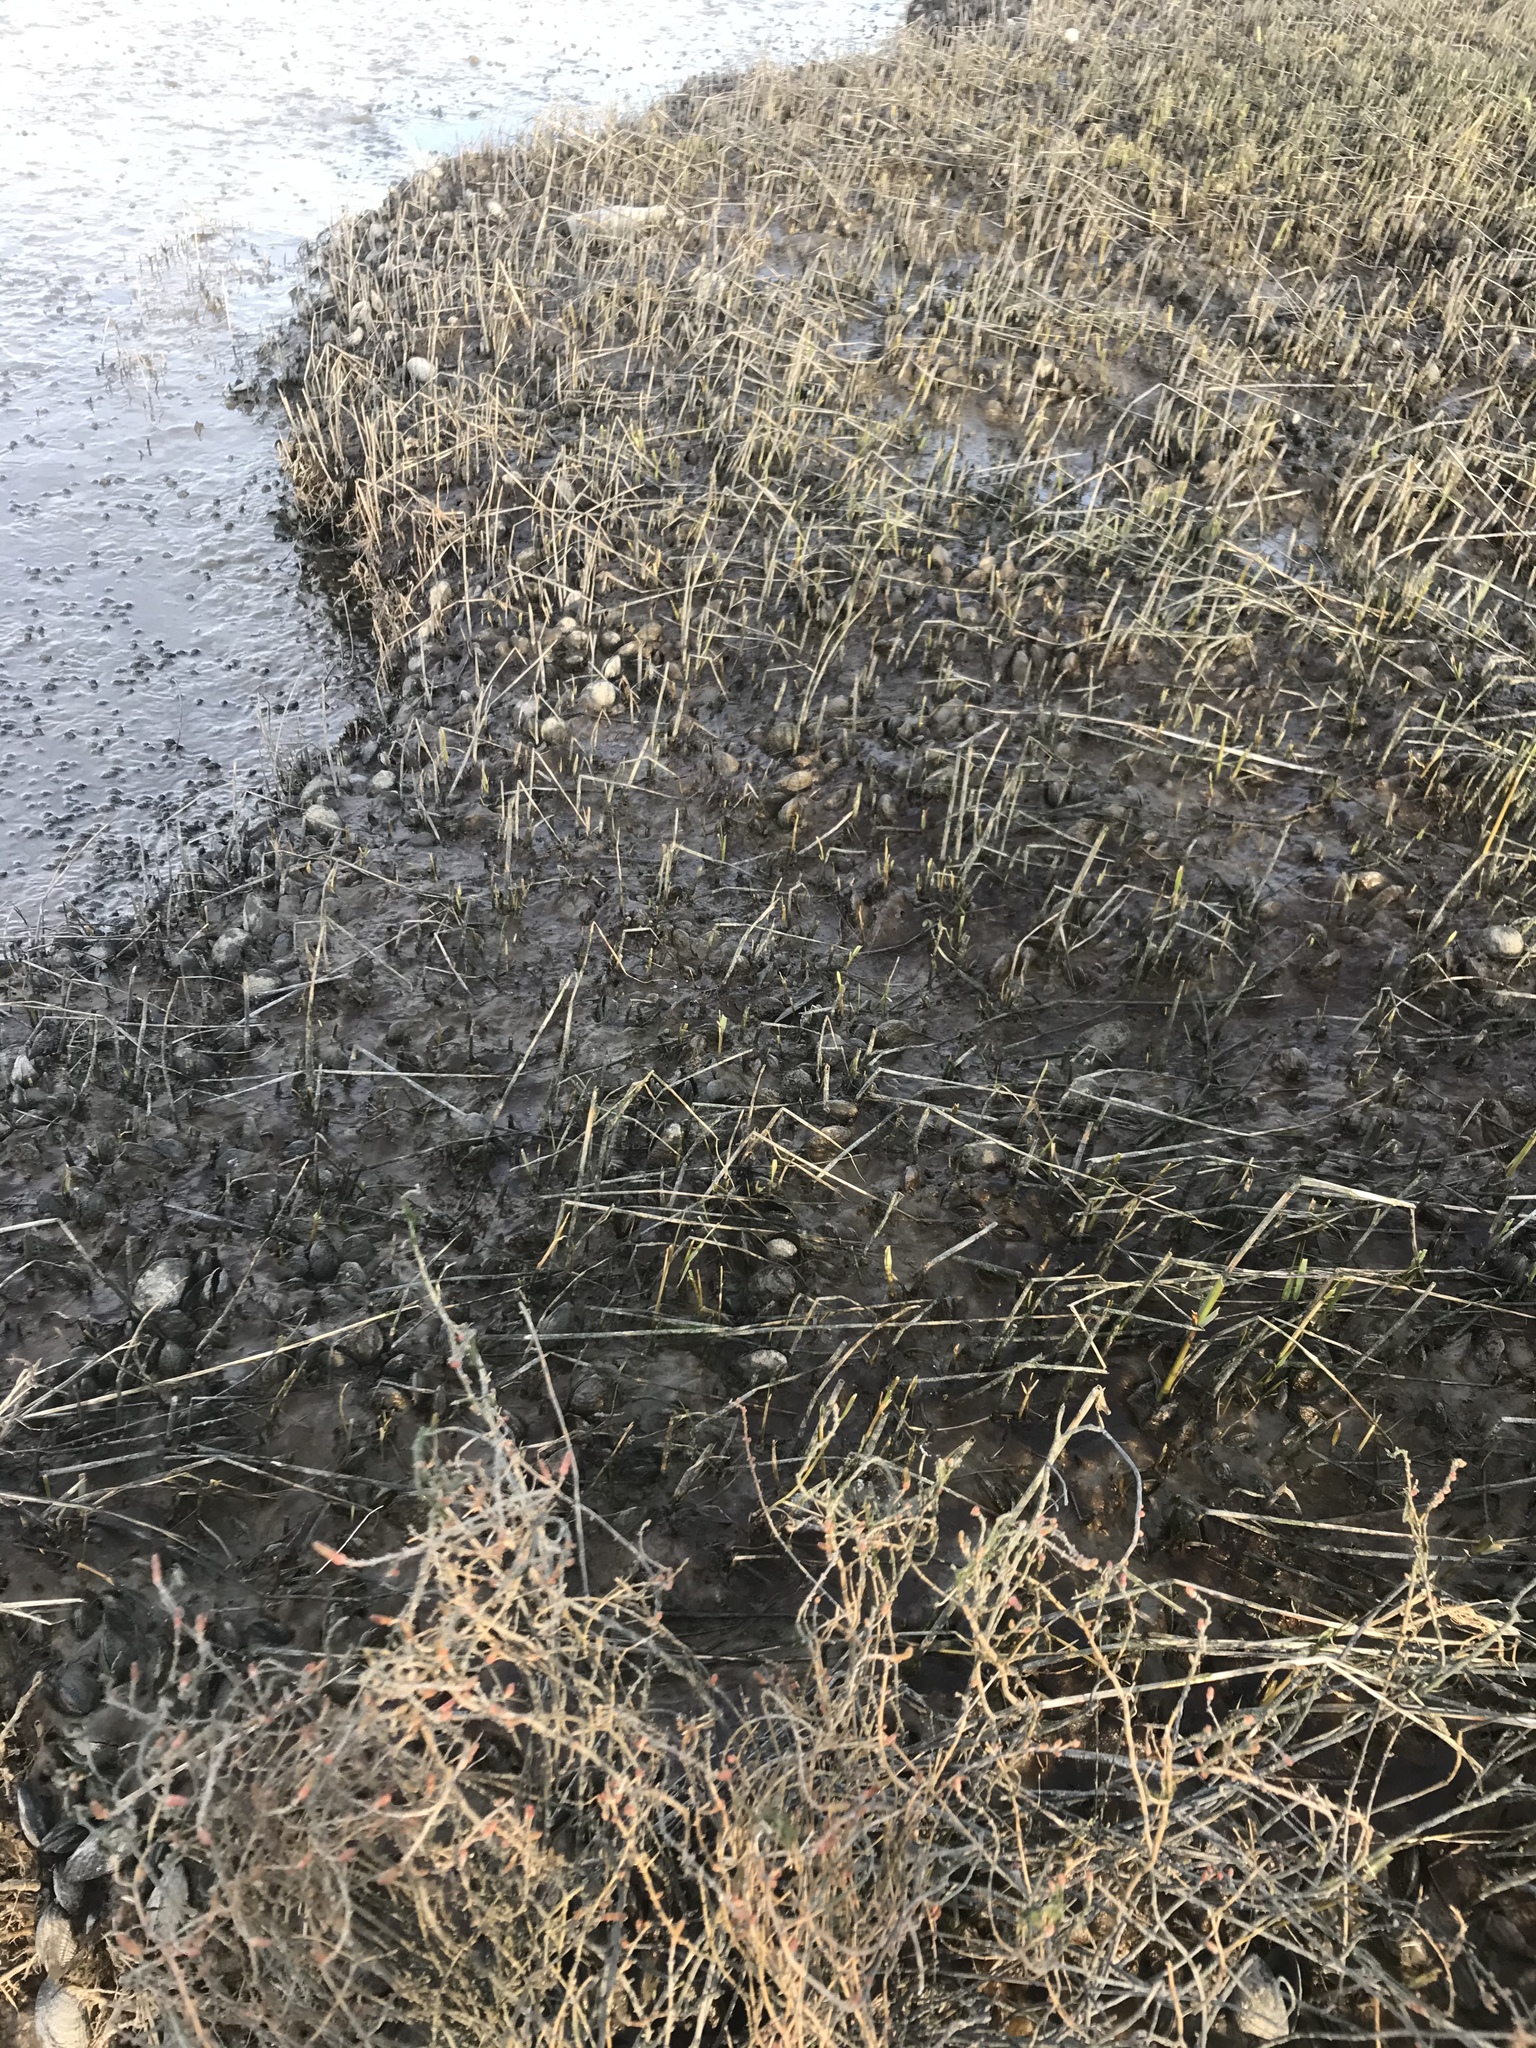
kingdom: Animalia
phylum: Mollusca
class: Bivalvia
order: Mytilida
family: Mytilidae
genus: Geukensia
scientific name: Geukensia demissa
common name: Ribbed mussel
